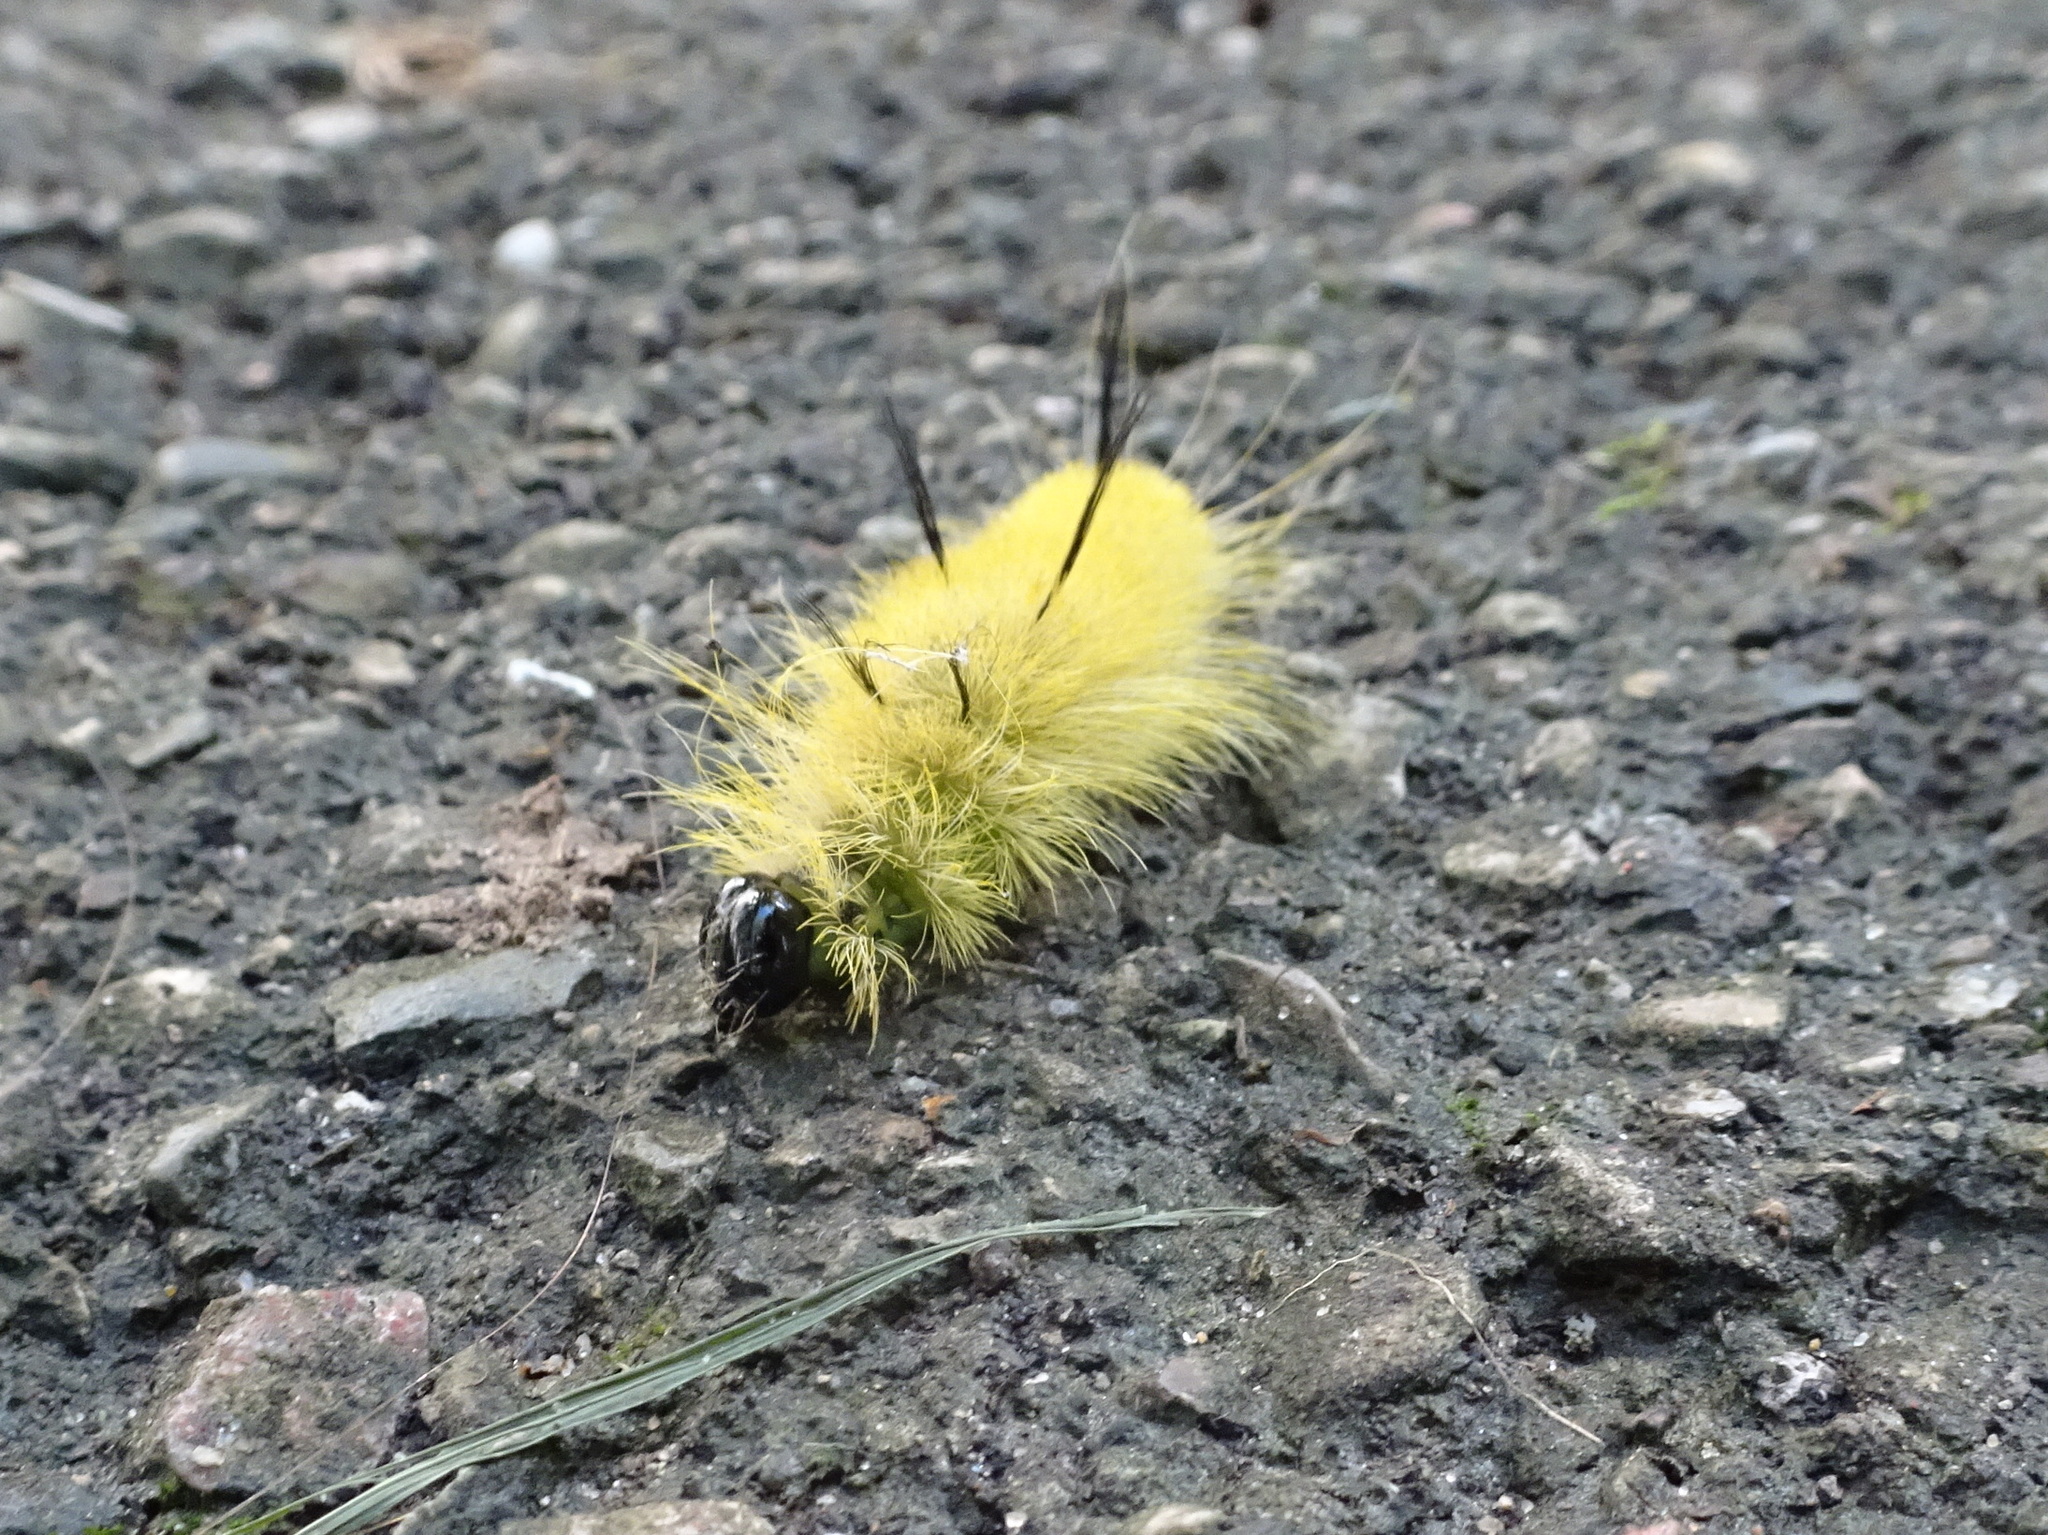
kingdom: Animalia
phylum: Arthropoda
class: Insecta
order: Lepidoptera
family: Noctuidae
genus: Acronicta
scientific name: Acronicta americana
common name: American dagger
